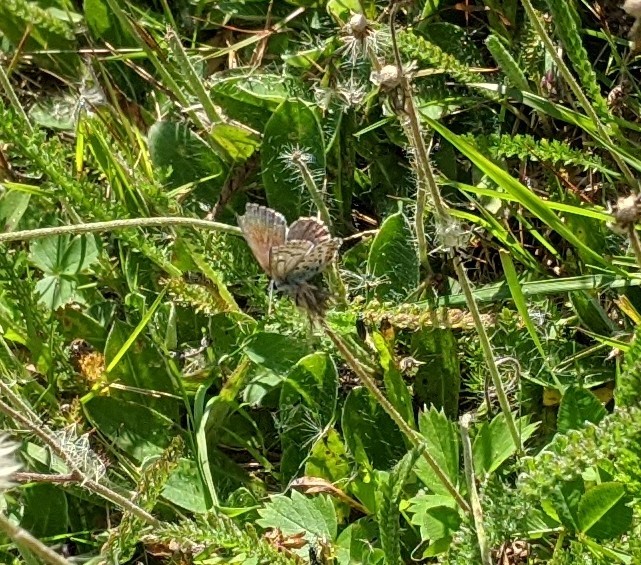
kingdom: Animalia
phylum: Arthropoda
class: Insecta
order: Lepidoptera
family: Lycaenidae
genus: Lycaeides
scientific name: Lycaeides idas
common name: Northern blue
